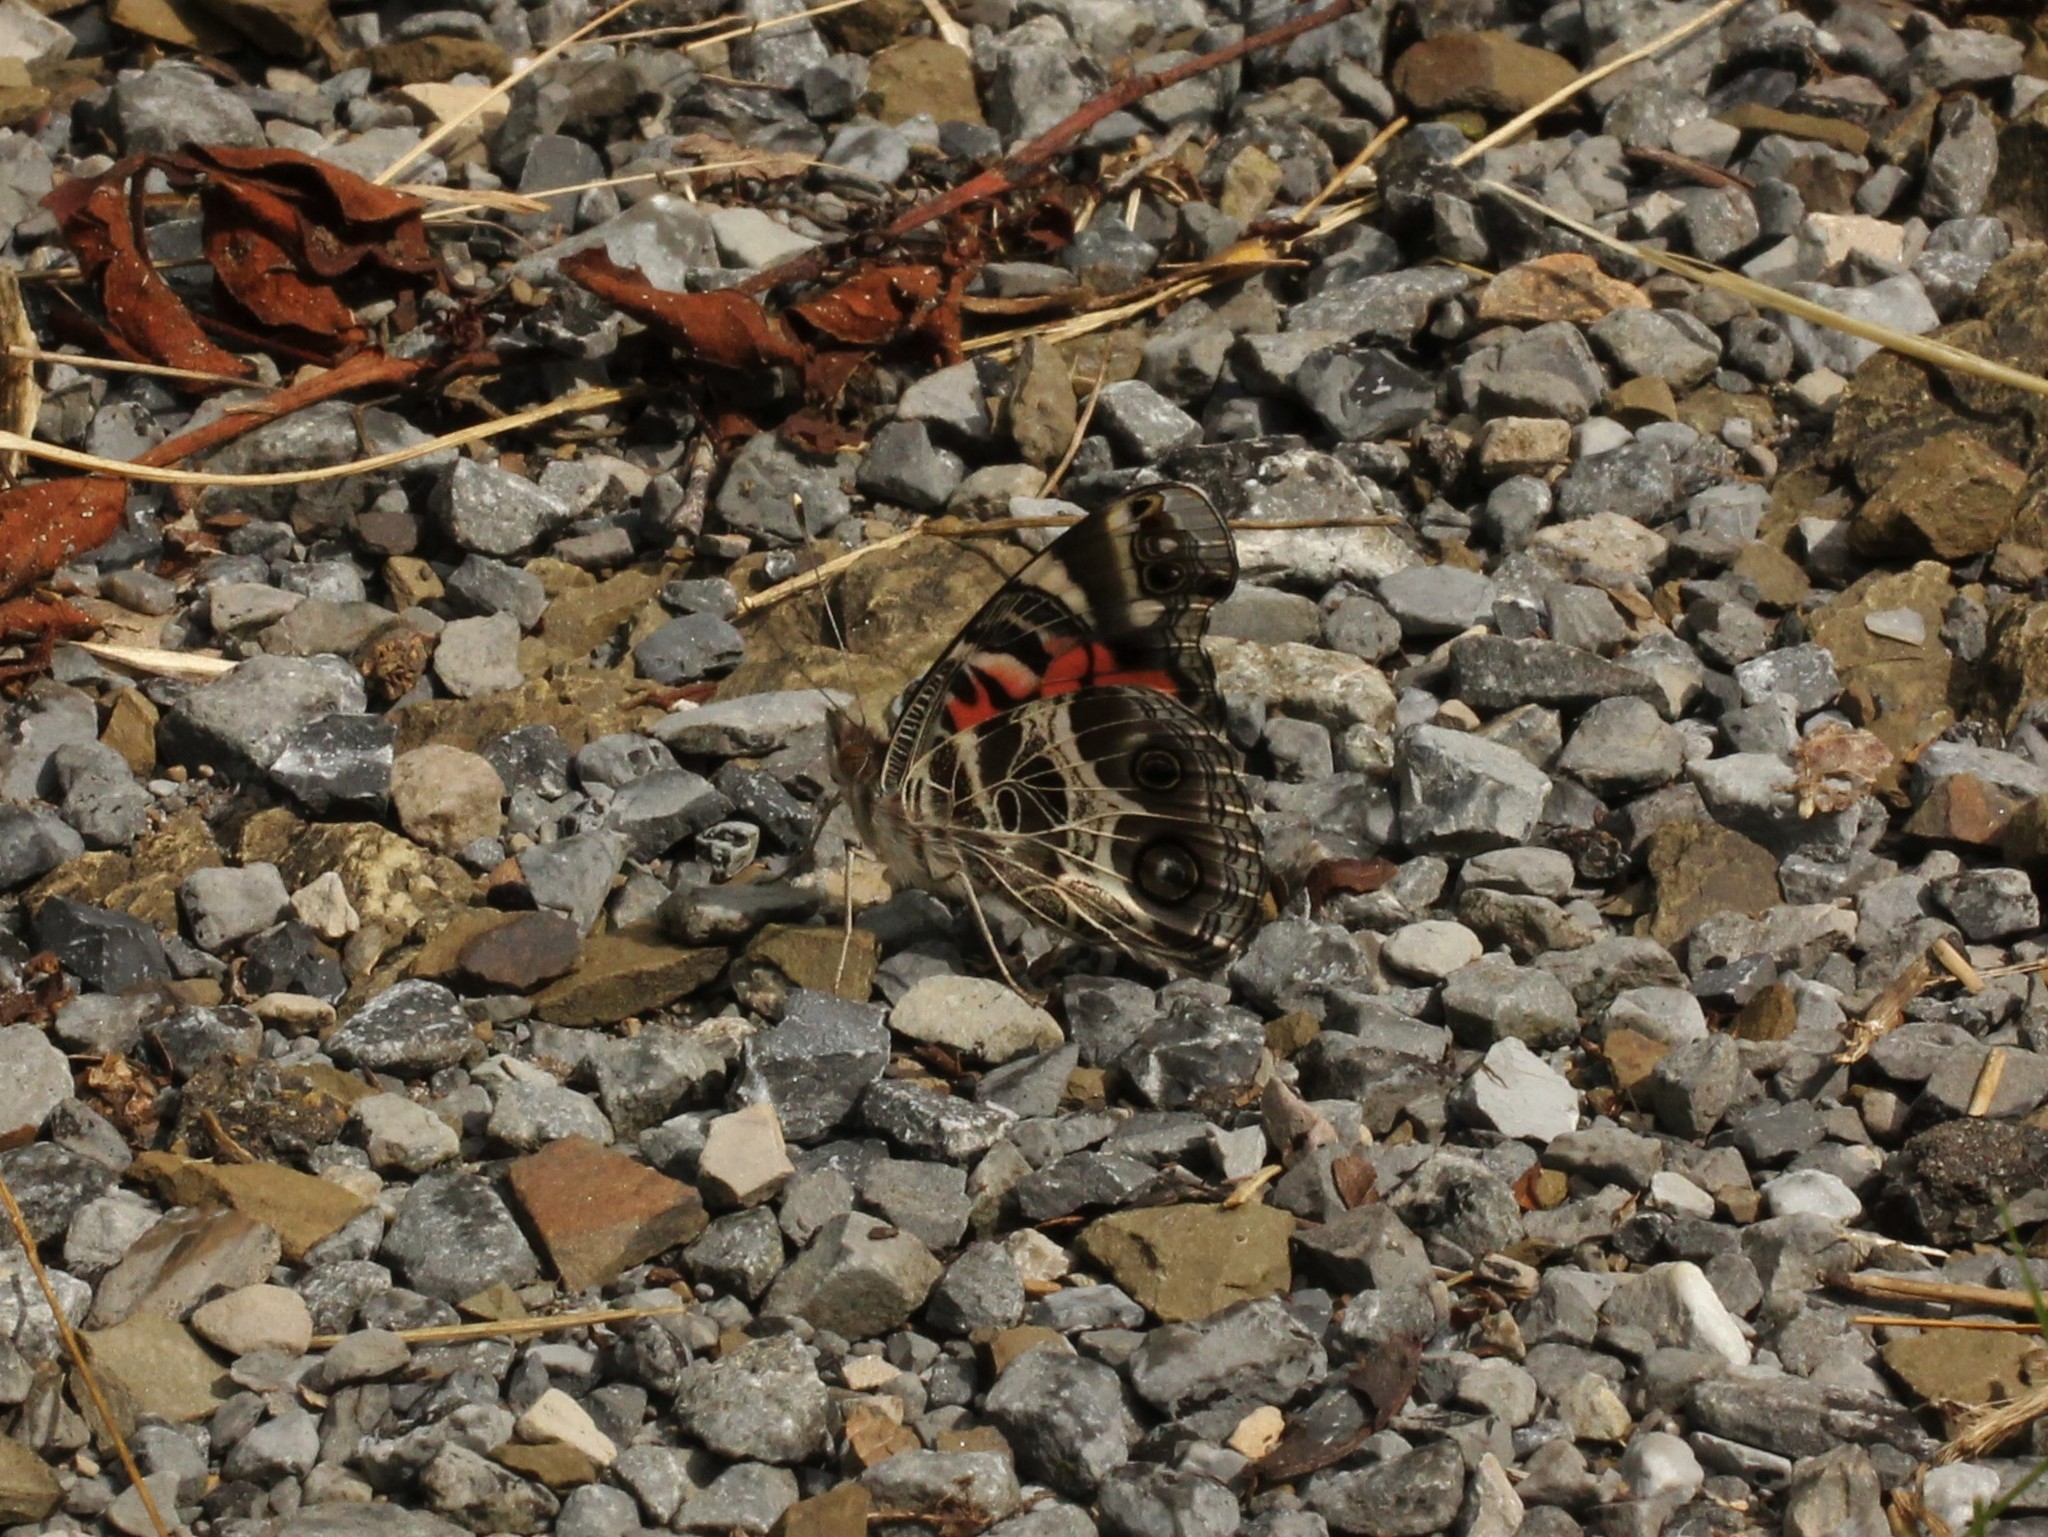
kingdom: Animalia
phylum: Arthropoda
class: Insecta
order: Lepidoptera
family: Nymphalidae
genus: Vanessa
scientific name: Vanessa virginiensis
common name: American lady
